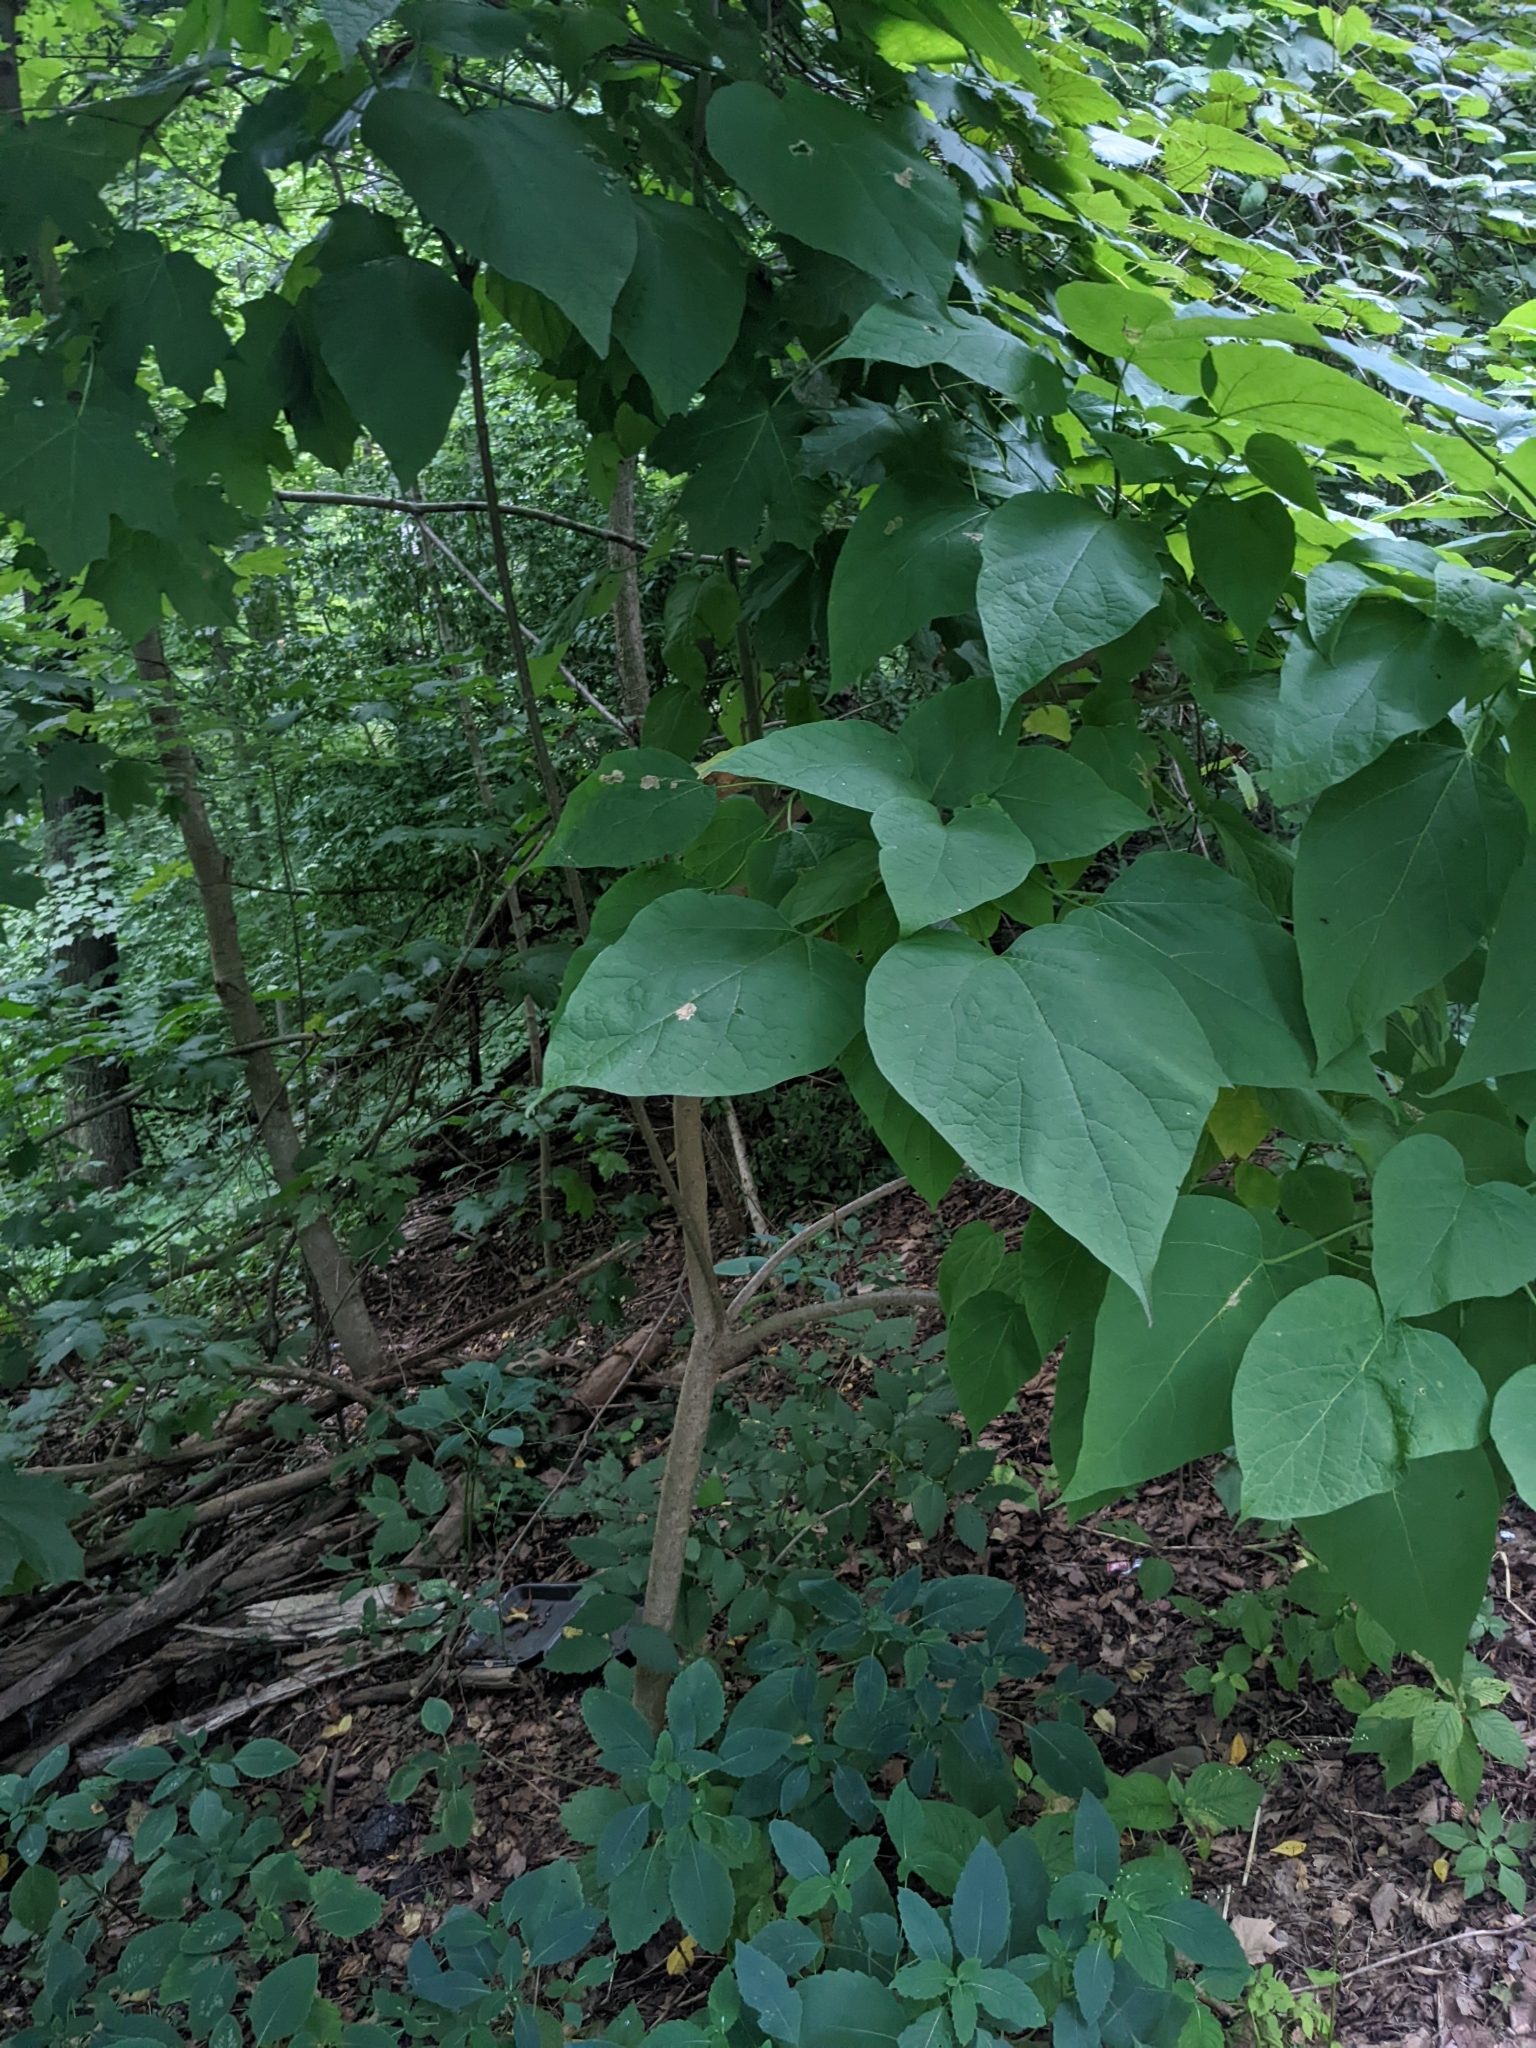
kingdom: Plantae
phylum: Tracheophyta
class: Magnoliopsida
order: Lamiales
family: Bignoniaceae
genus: Catalpa
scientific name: Catalpa speciosa
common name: Northern catalpa
